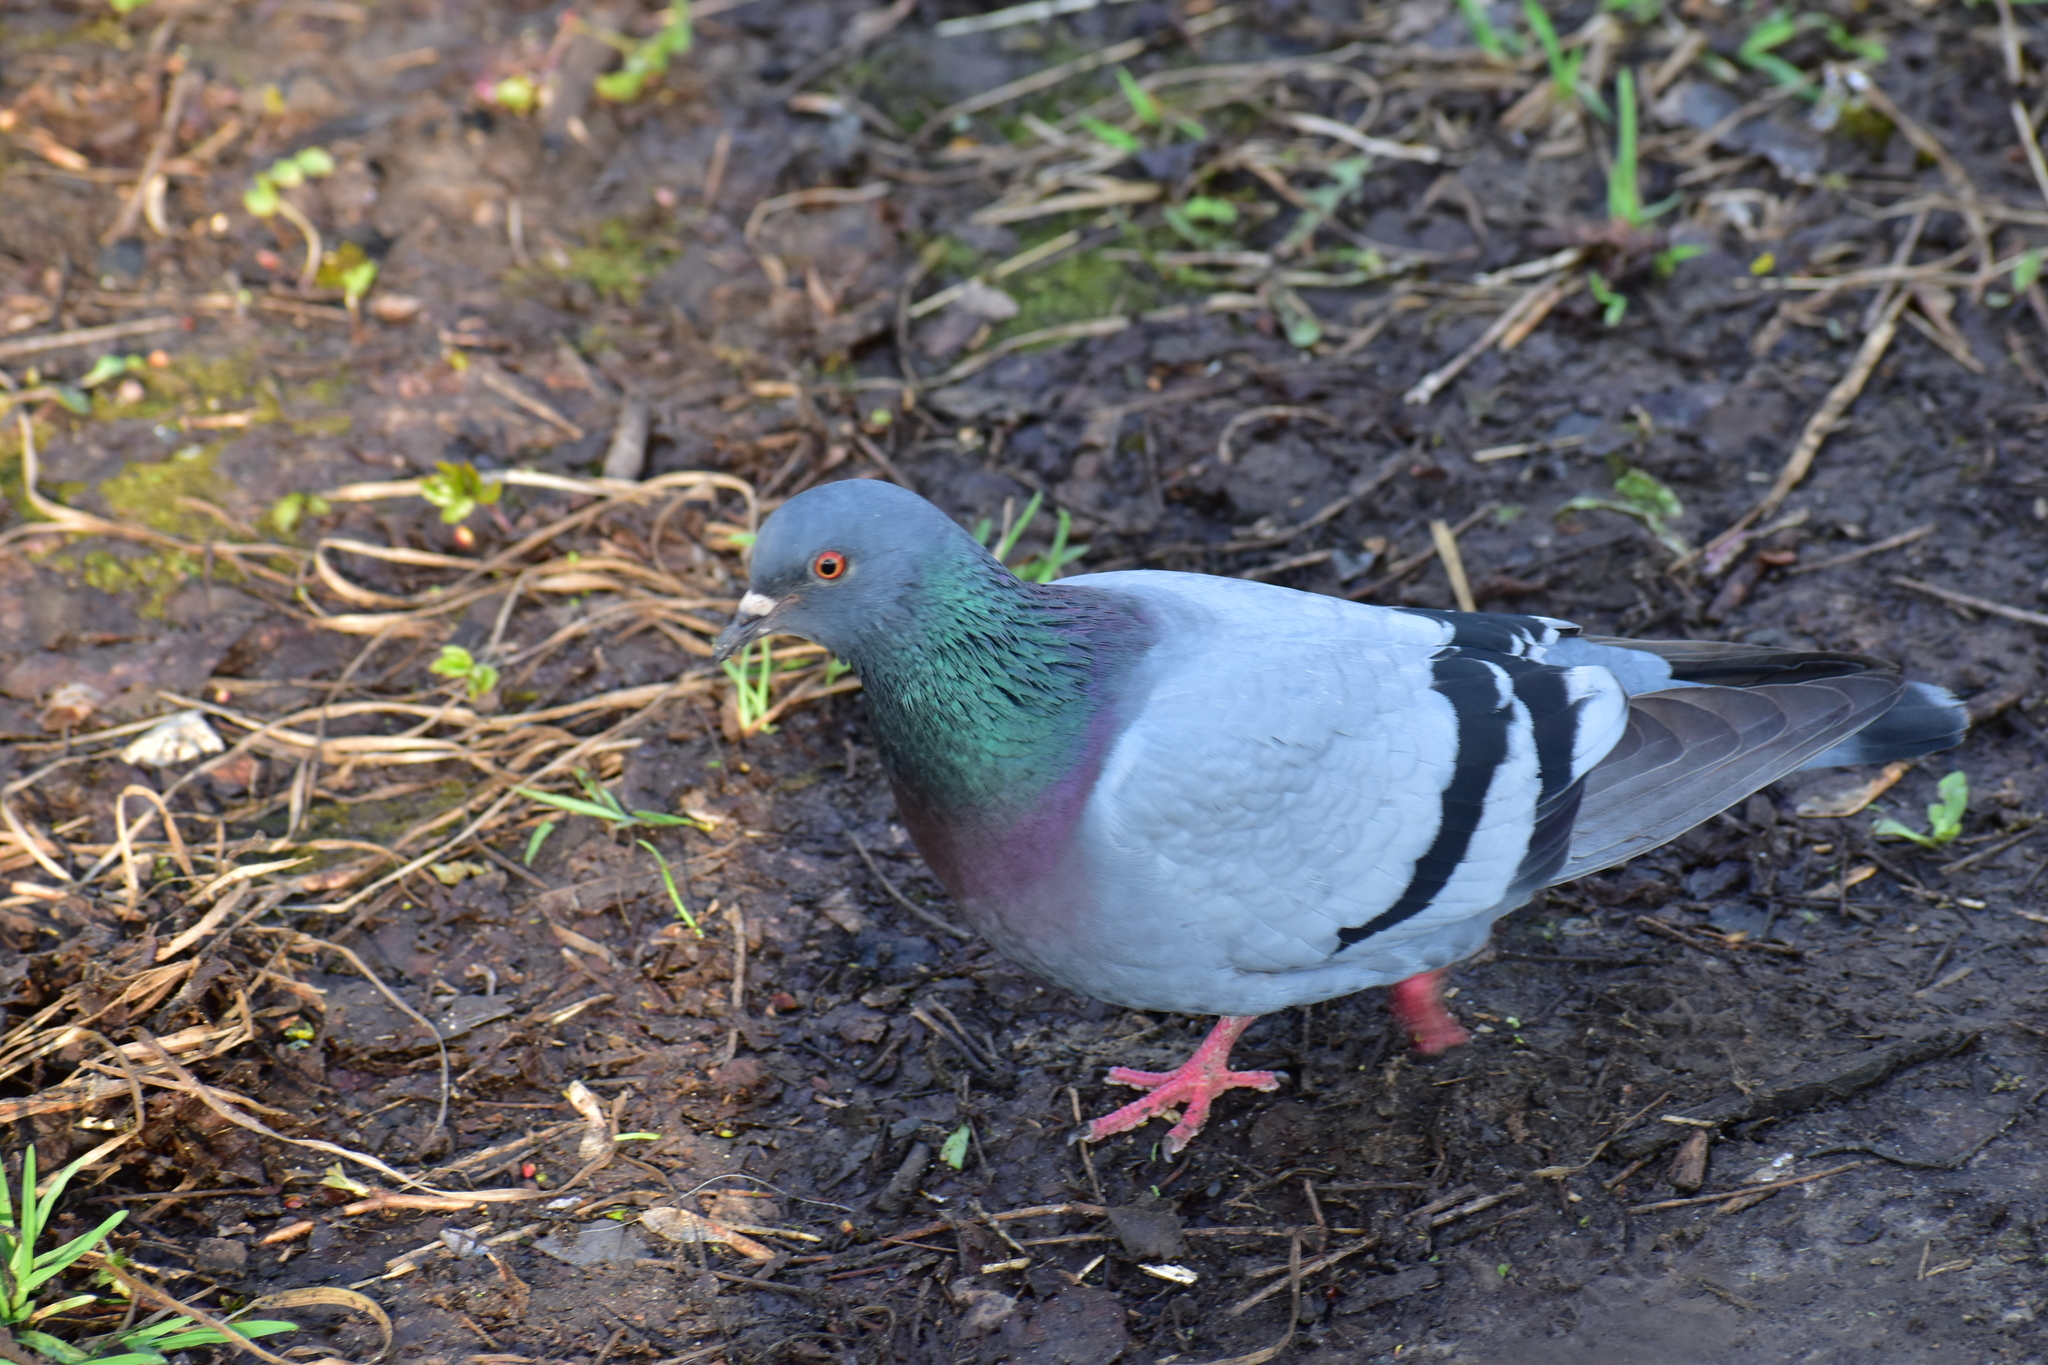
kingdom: Animalia
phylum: Chordata
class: Aves
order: Columbiformes
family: Columbidae
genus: Columba
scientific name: Columba livia
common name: Rock pigeon
